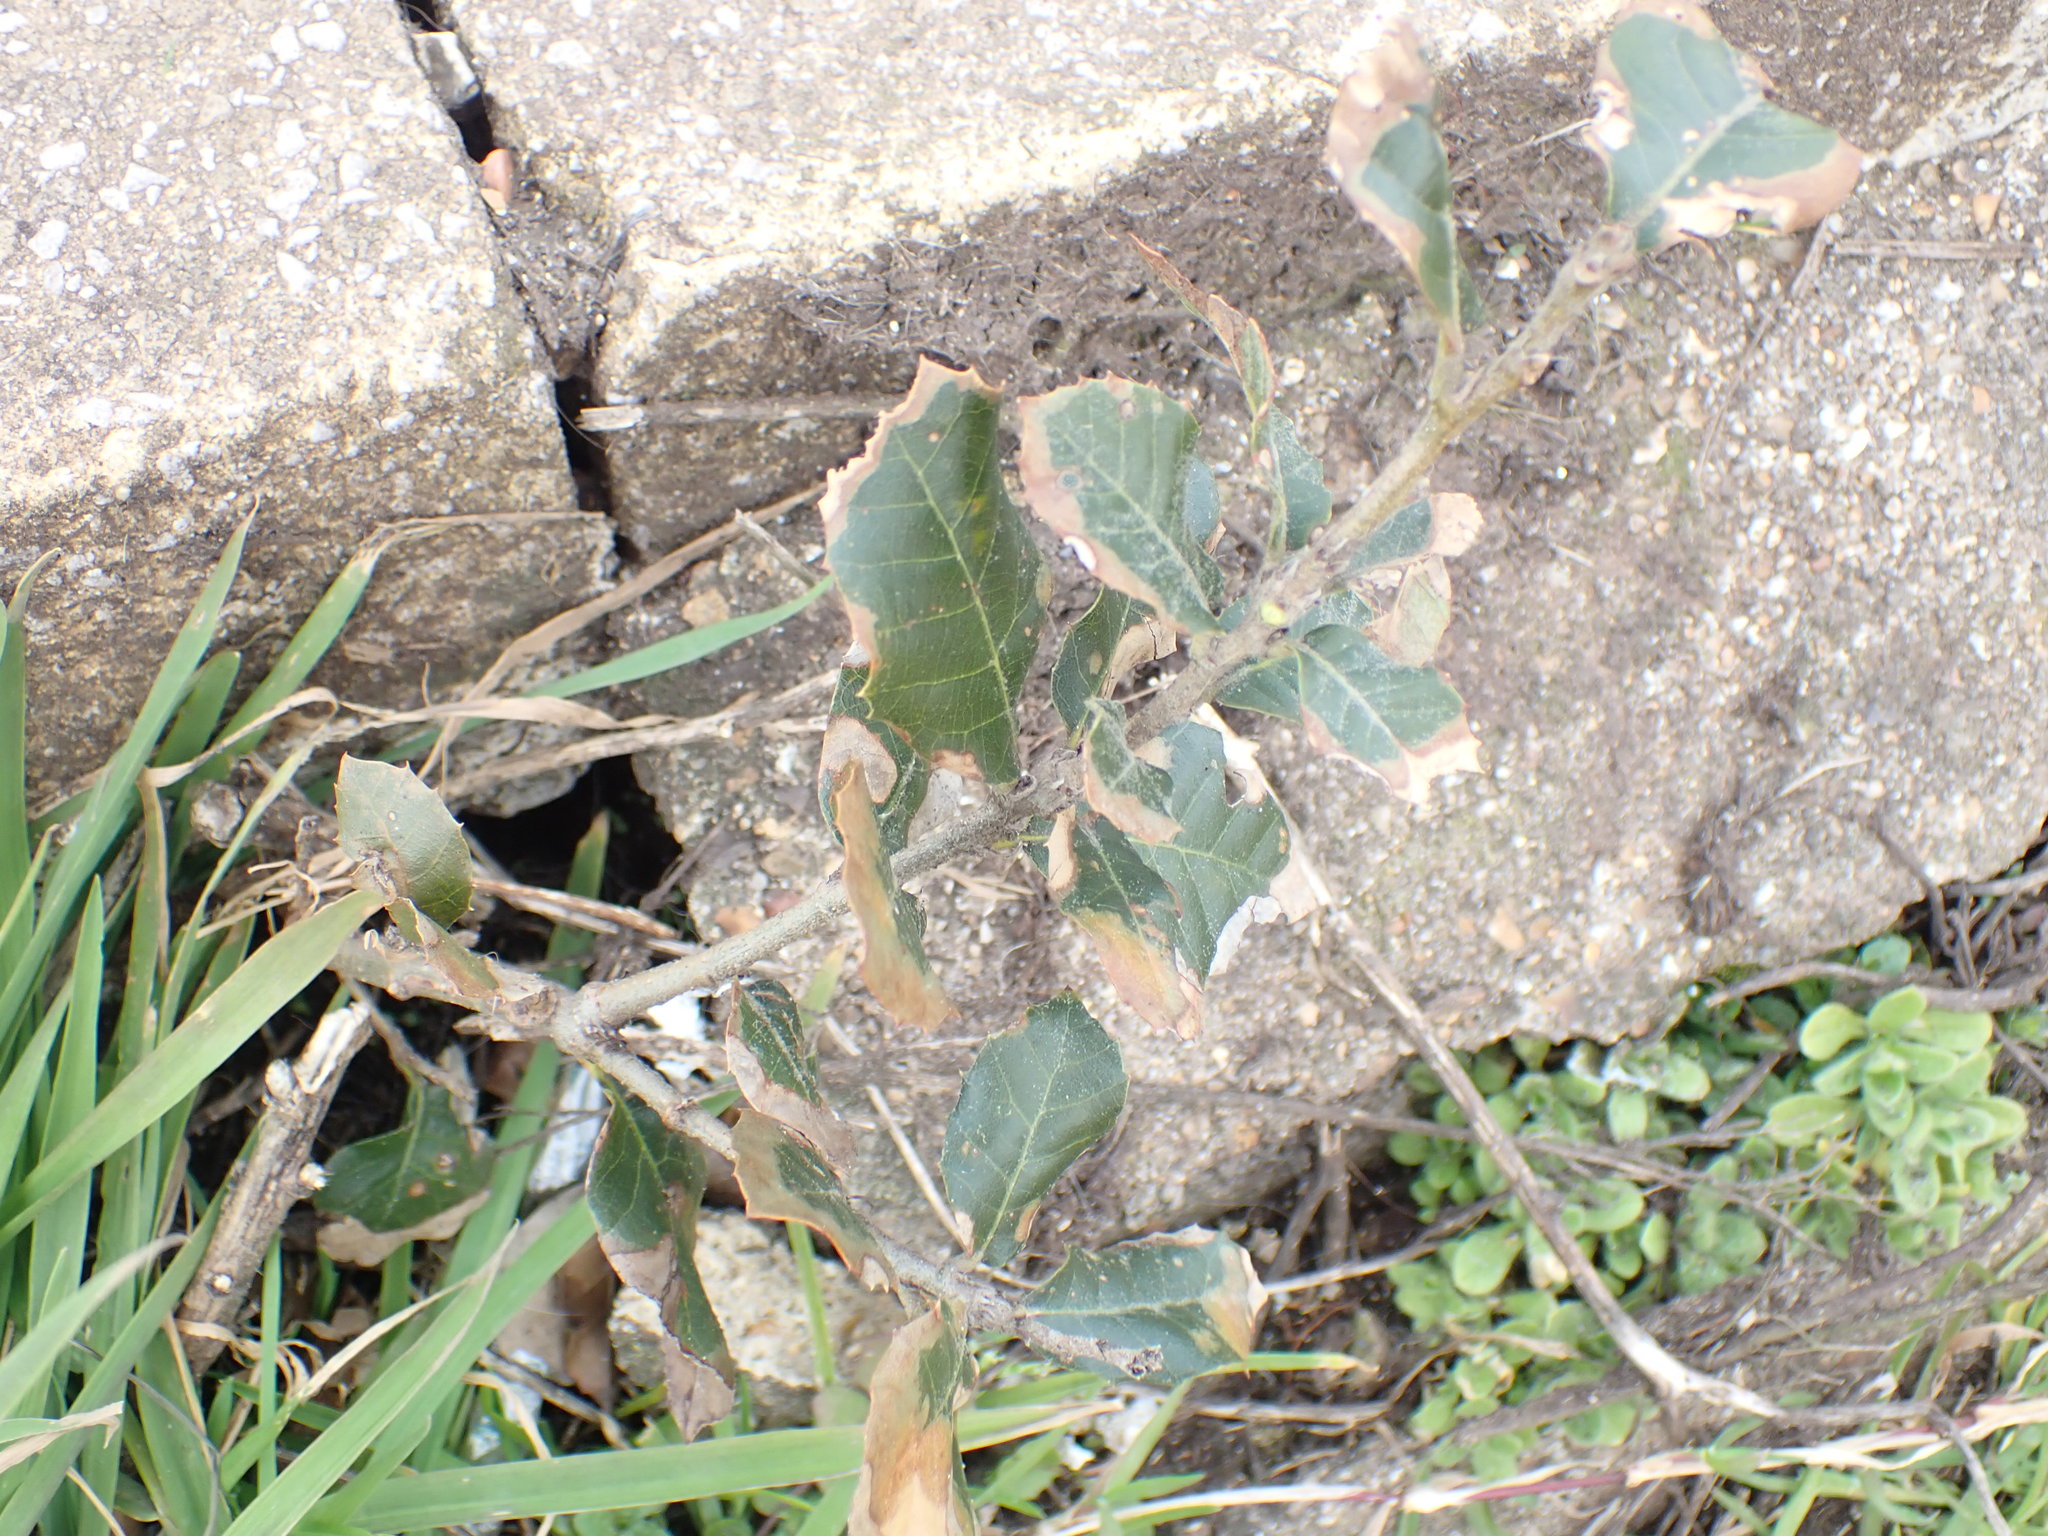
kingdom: Plantae
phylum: Tracheophyta
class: Magnoliopsida
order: Fagales
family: Fagaceae
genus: Quercus
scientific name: Quercus ilex
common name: Evergreen oak
